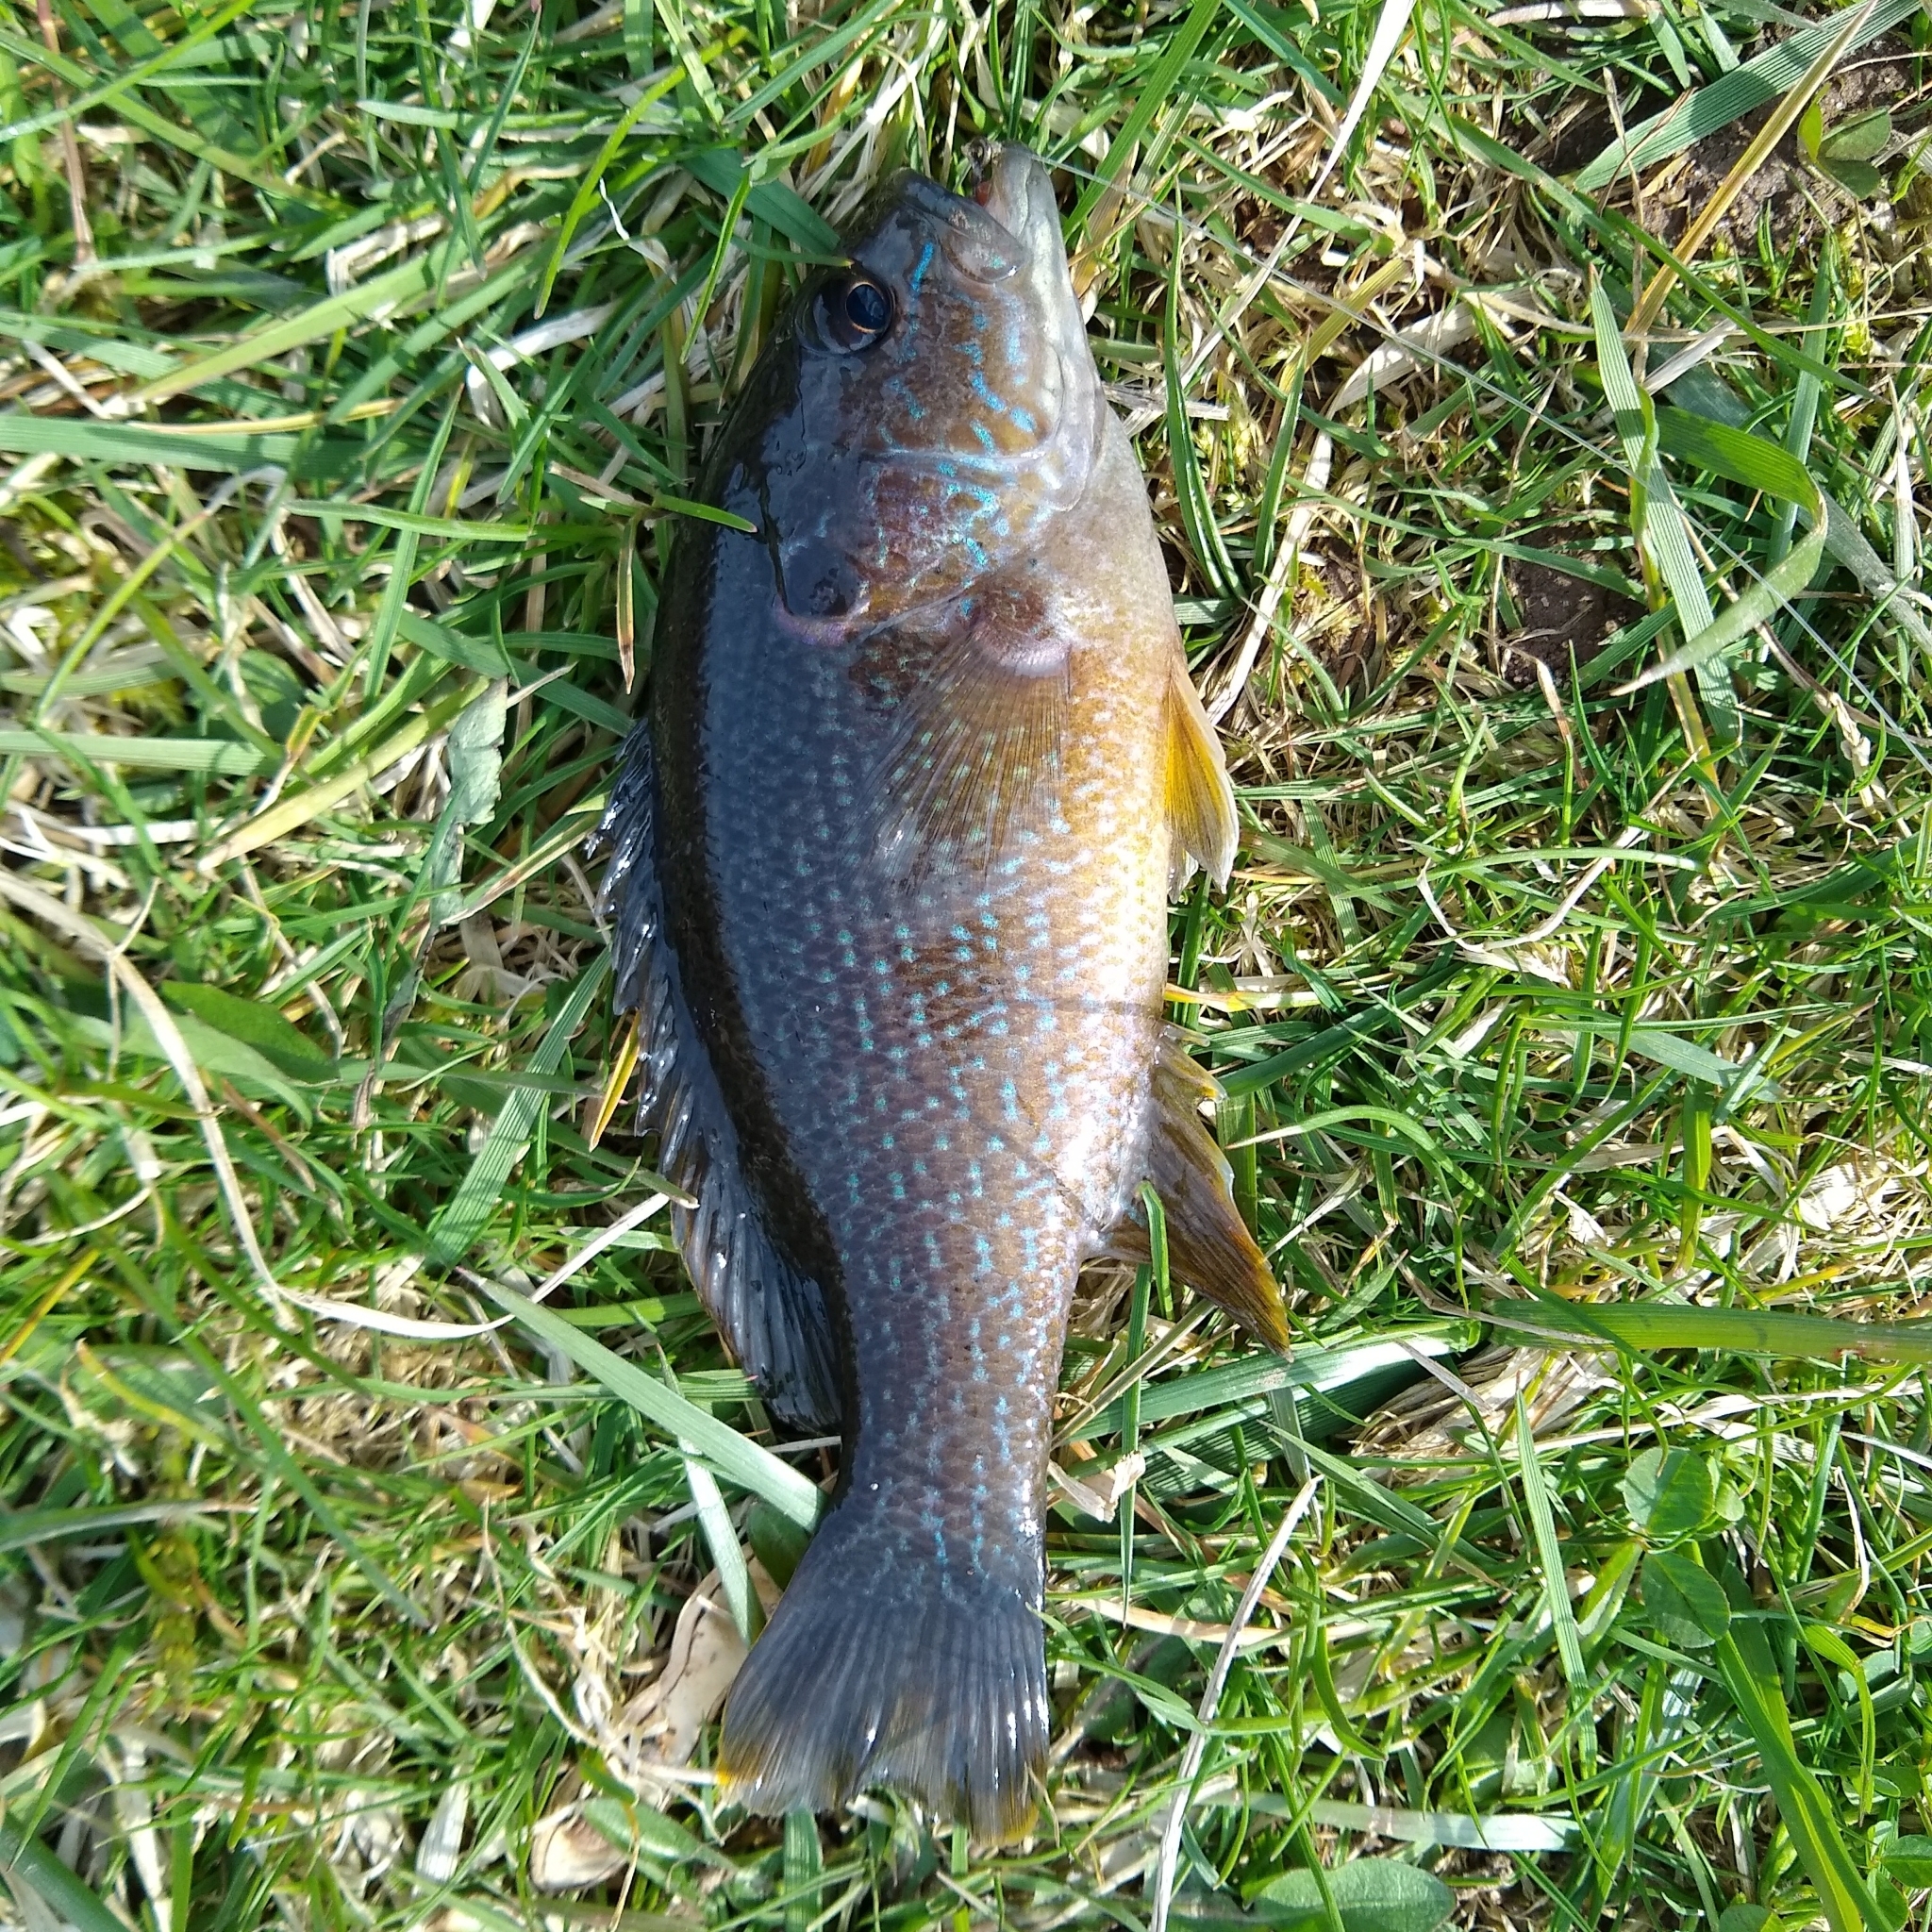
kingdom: Animalia
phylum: Chordata
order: Perciformes
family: Centrarchidae
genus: Lepomis
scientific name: Lepomis cyanellus
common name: Green sunfish
